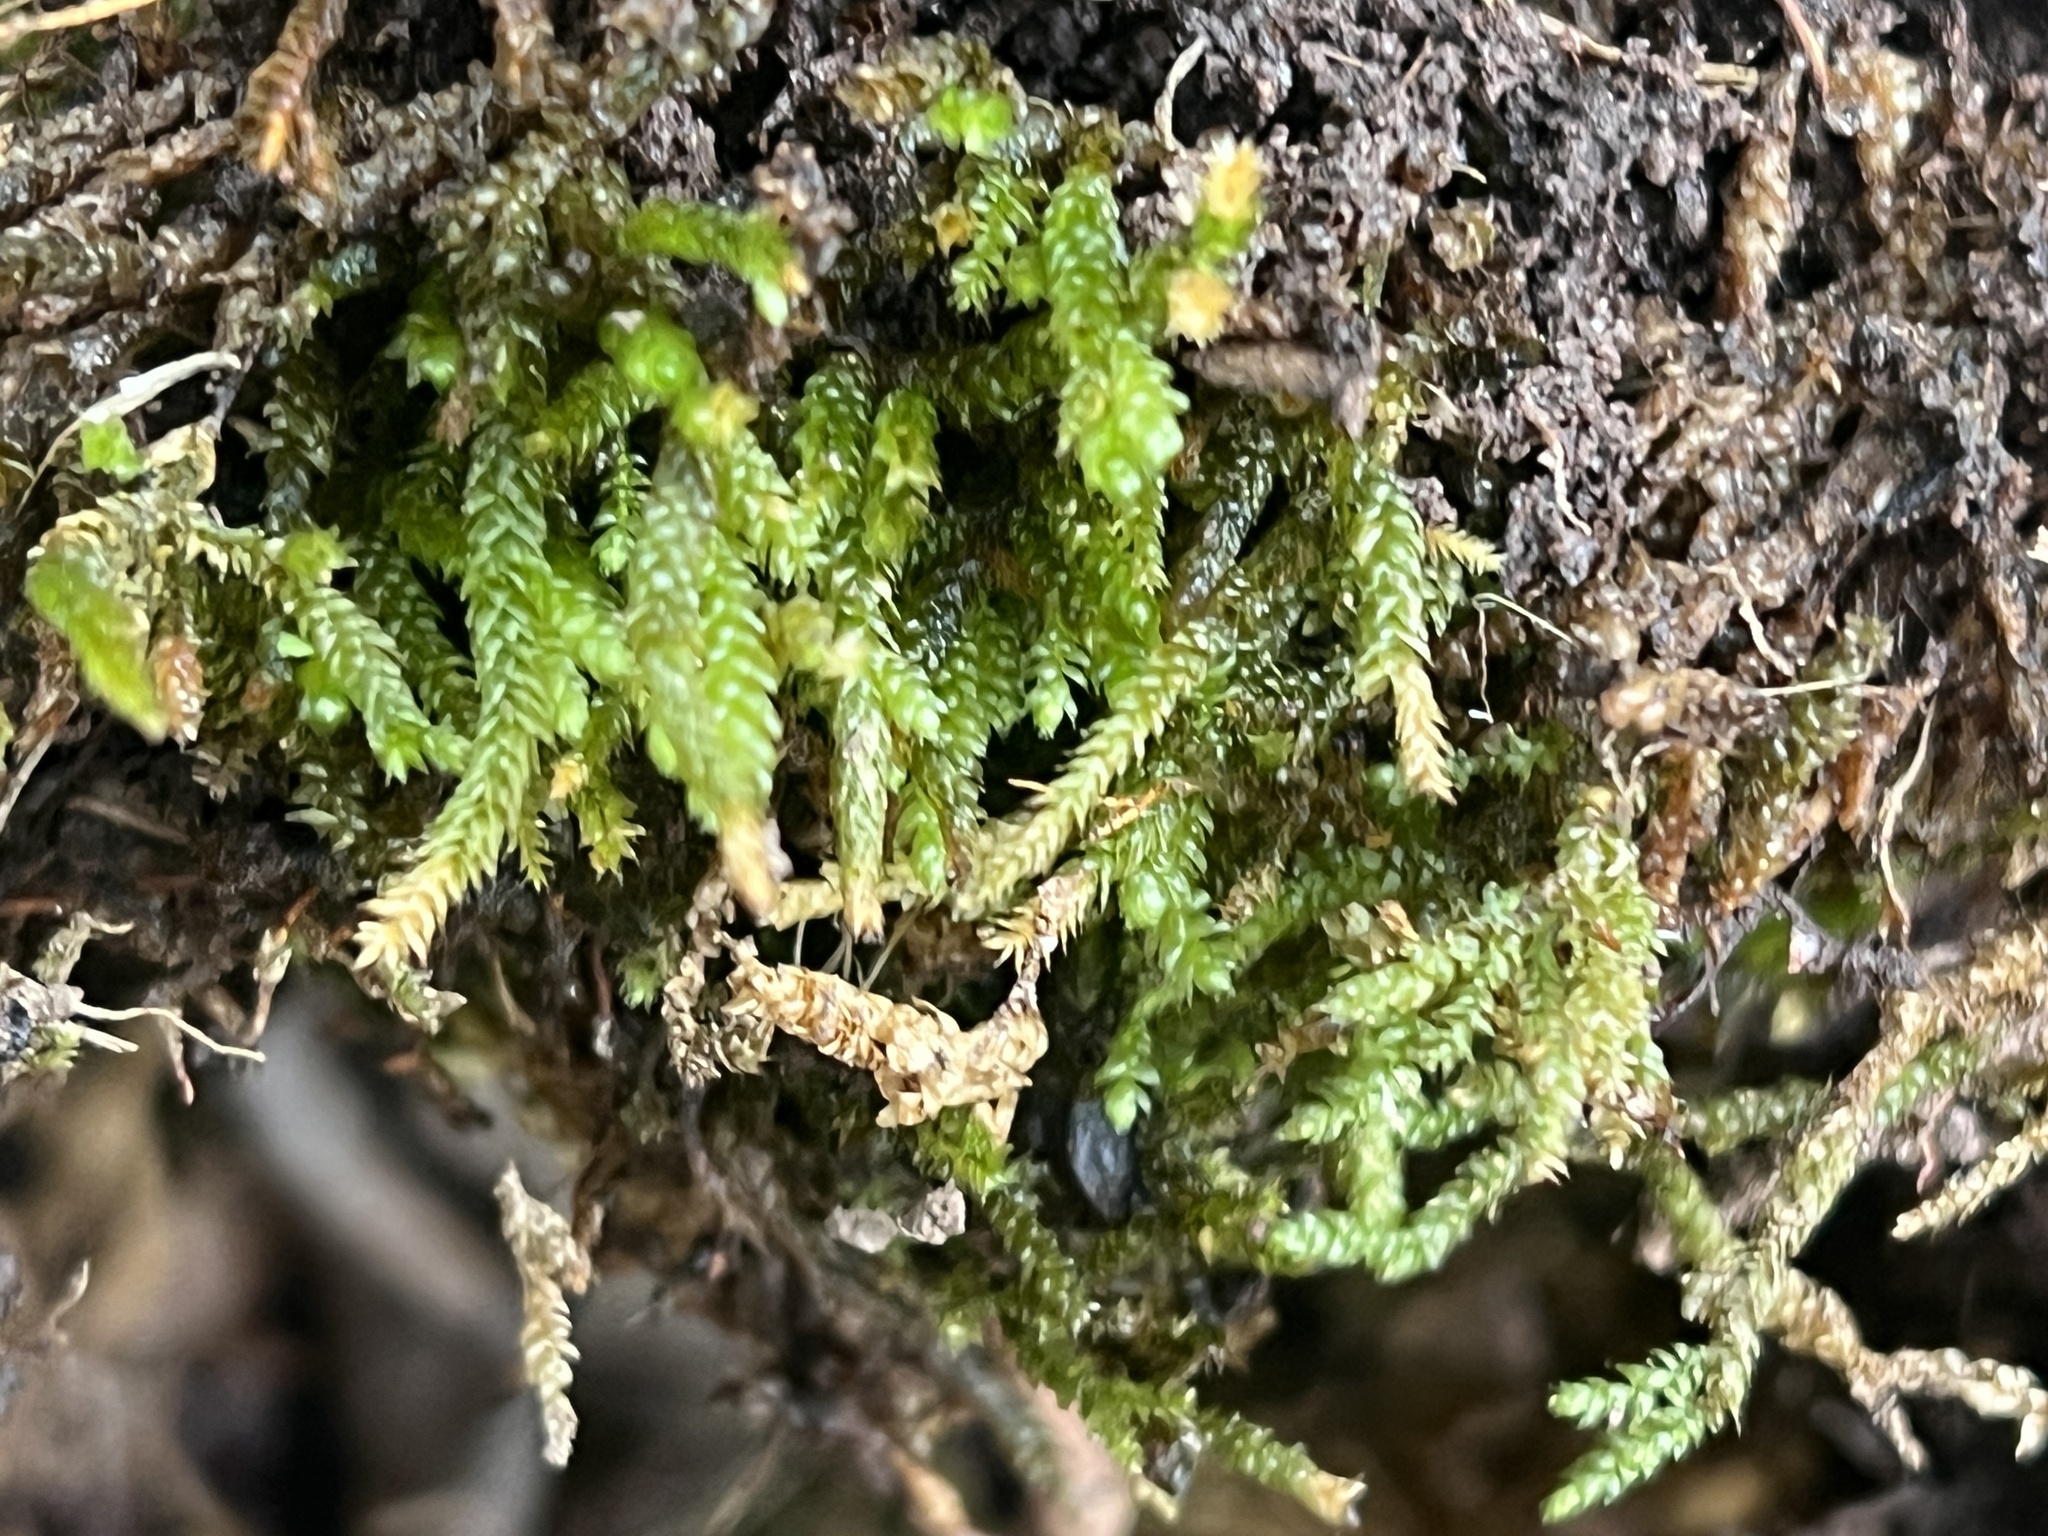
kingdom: Plantae
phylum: Bryophyta
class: Bryopsida
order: Hypnales
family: Brachytheciaceae
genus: Bryoandersonia
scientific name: Bryoandersonia illecebra
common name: Spoon-leaved moss
